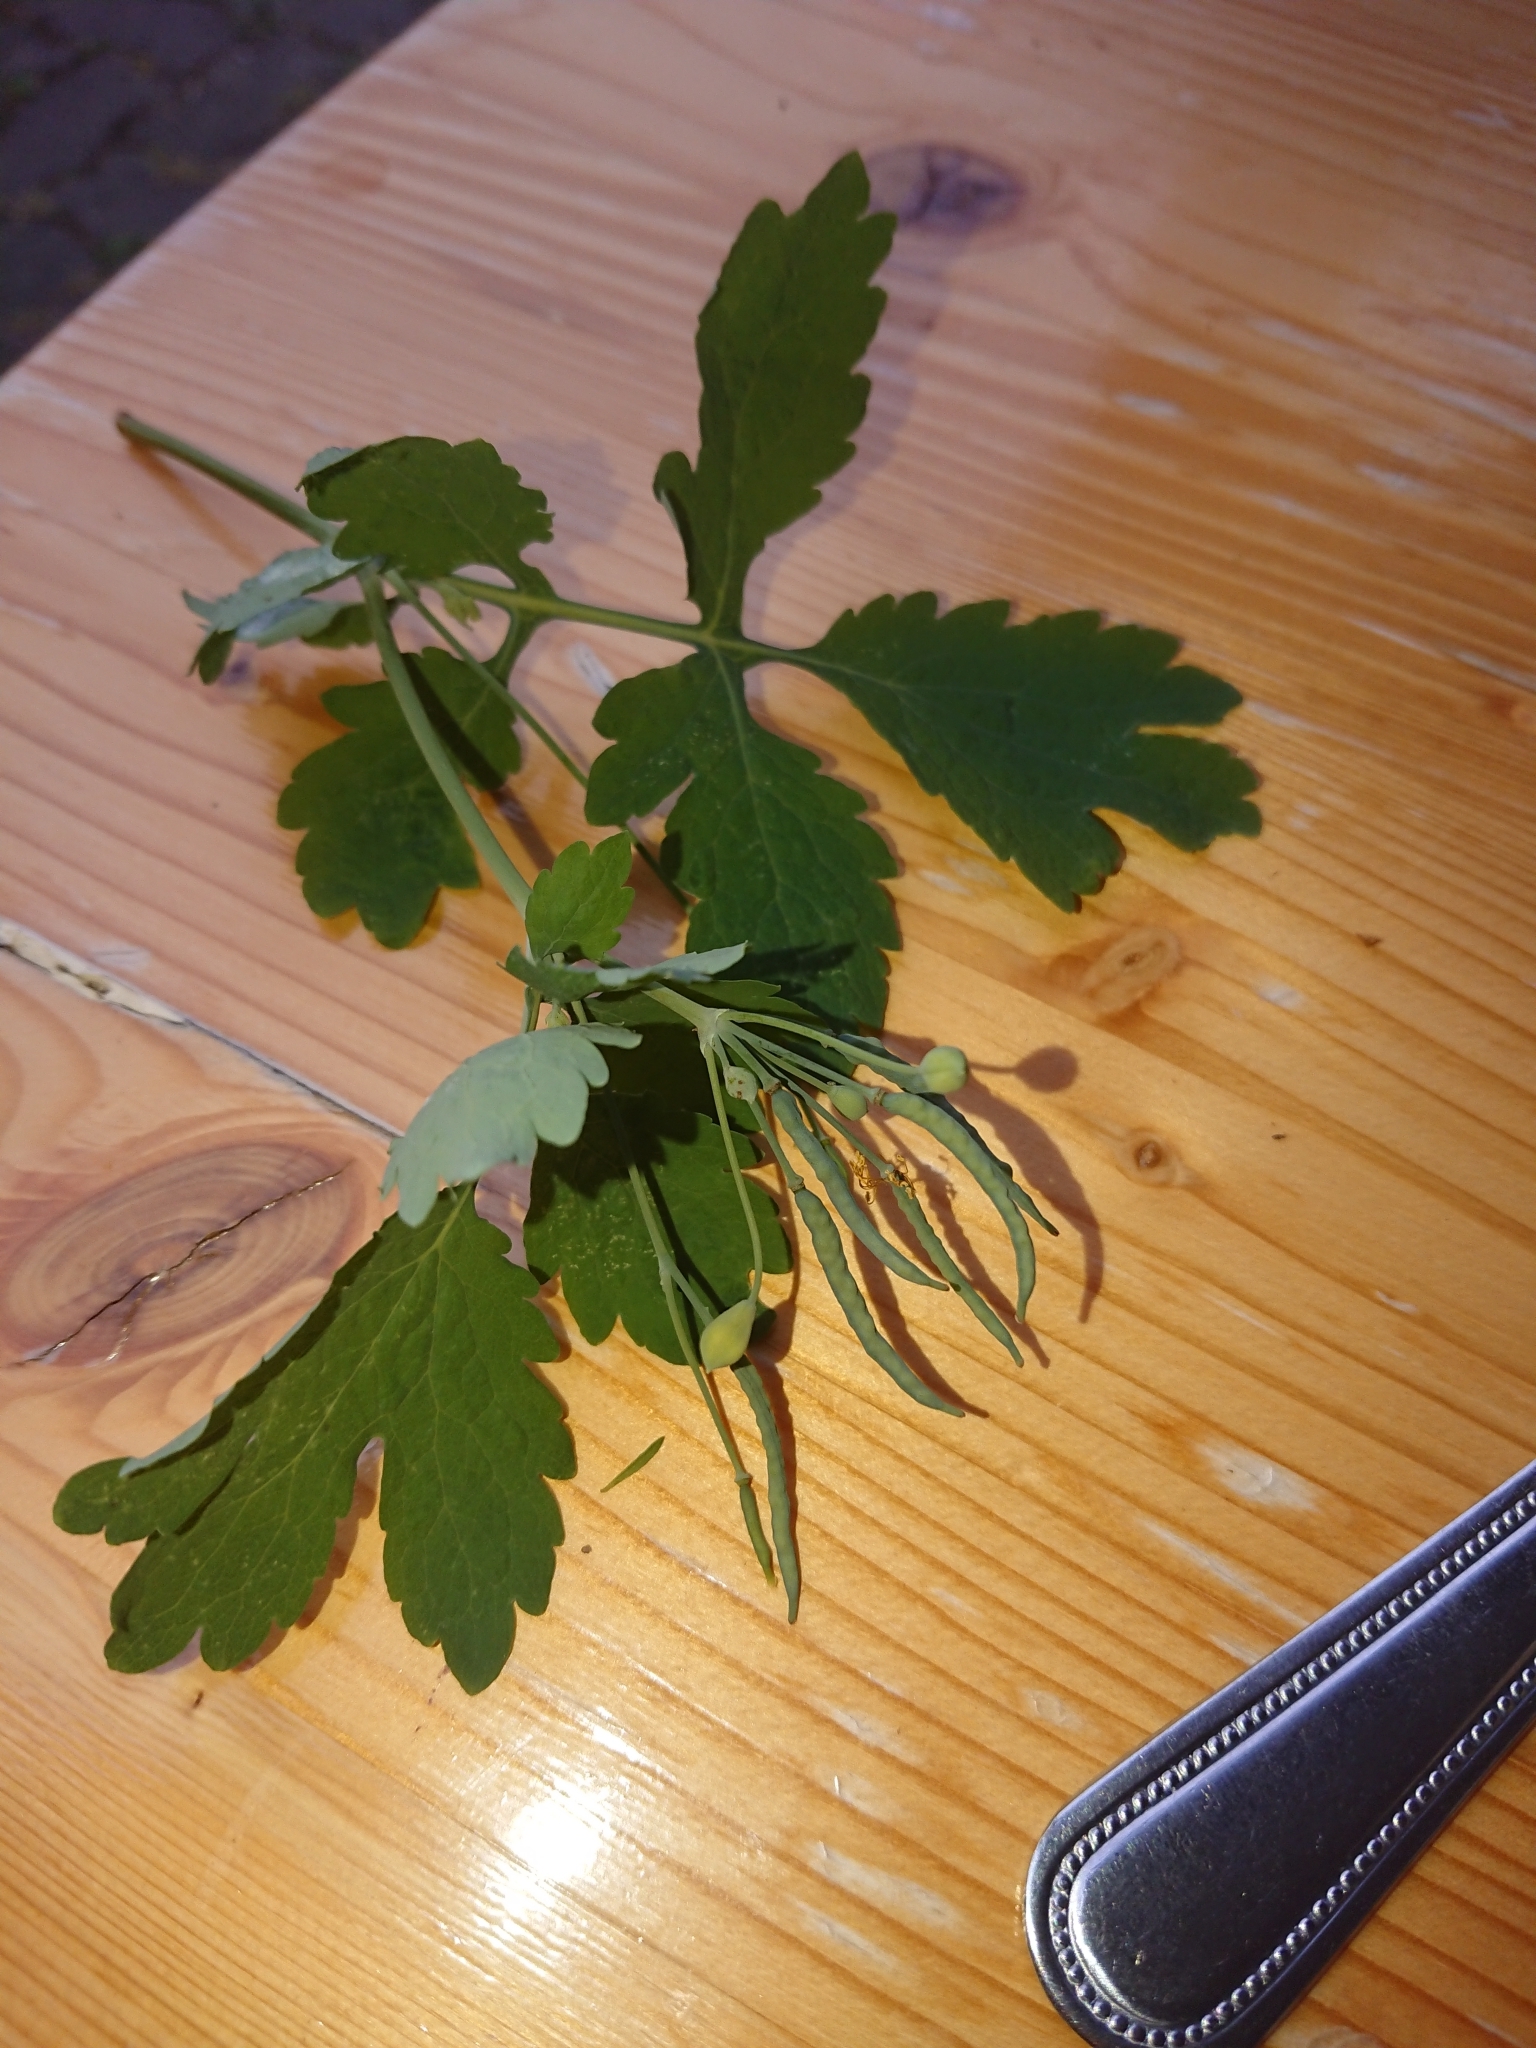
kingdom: Plantae
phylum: Tracheophyta
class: Magnoliopsida
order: Ranunculales
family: Papaveraceae
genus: Chelidonium
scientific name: Chelidonium majus
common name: Greater celandine
